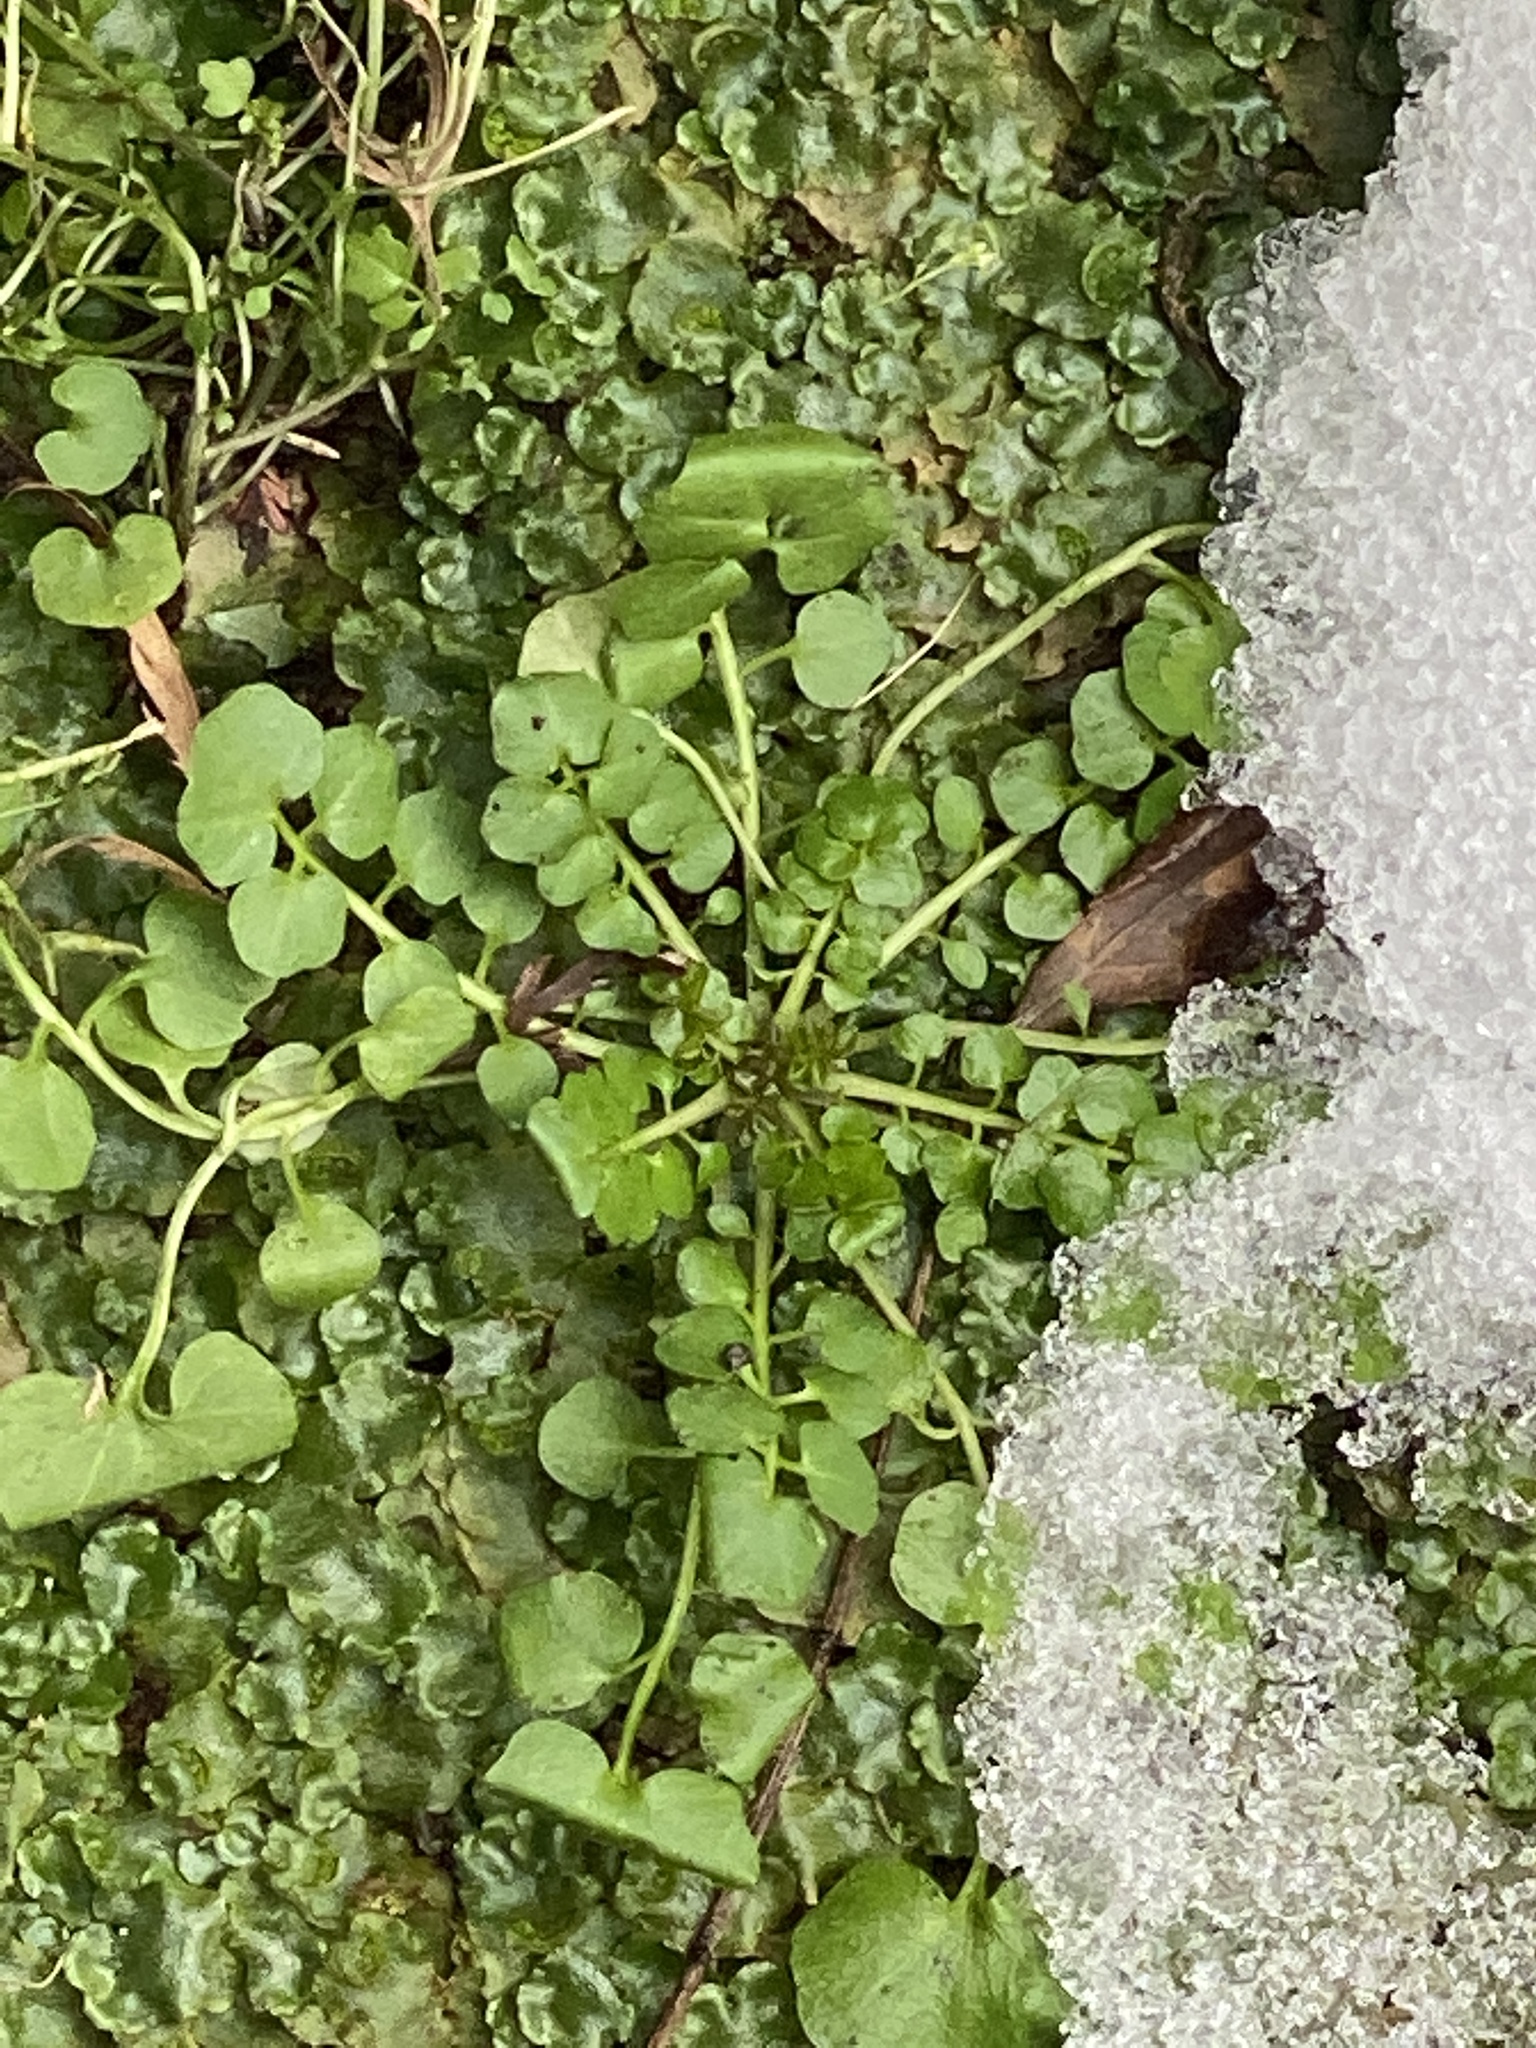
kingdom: Plantae
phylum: Tracheophyta
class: Magnoliopsida
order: Brassicales
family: Brassicaceae
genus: Cardamine
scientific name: Cardamine hirsuta
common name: Hairy bittercress
